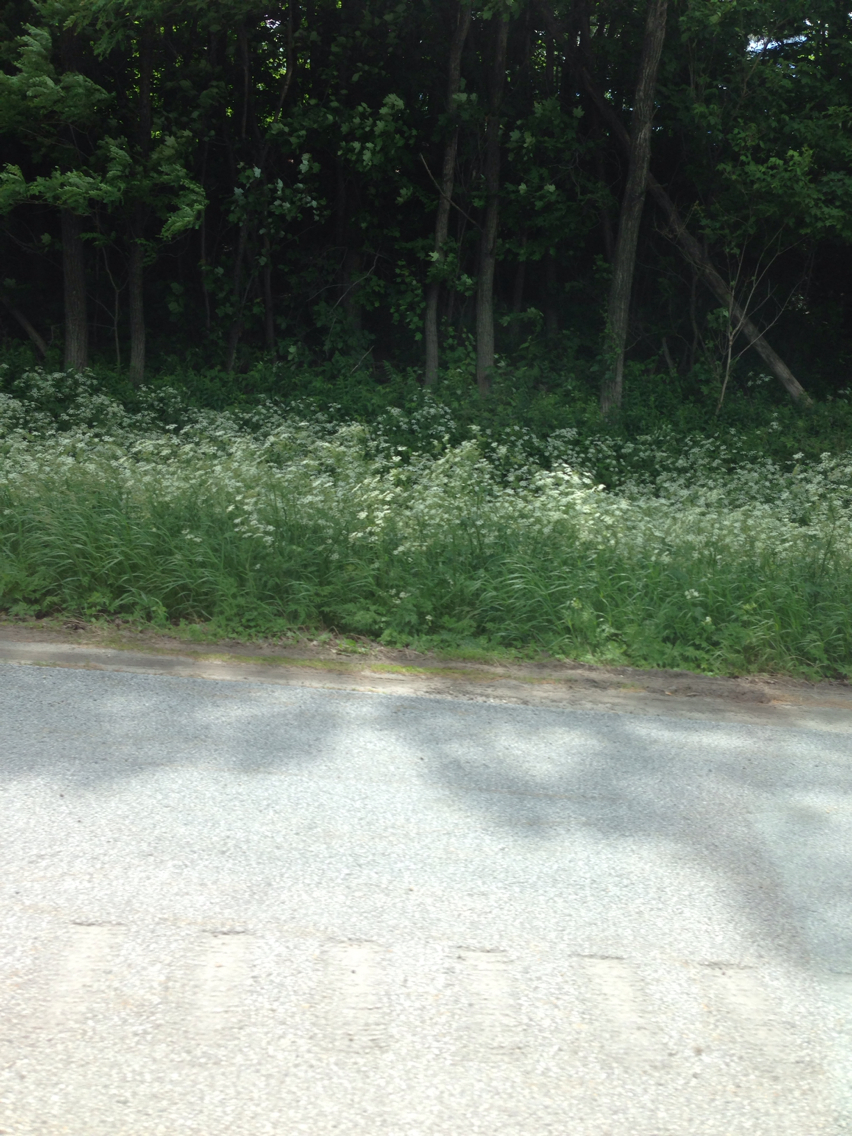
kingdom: Plantae
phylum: Tracheophyta
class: Magnoliopsida
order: Apiales
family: Apiaceae
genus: Anthriscus
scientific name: Anthriscus sylvestris
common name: Cow parsley
